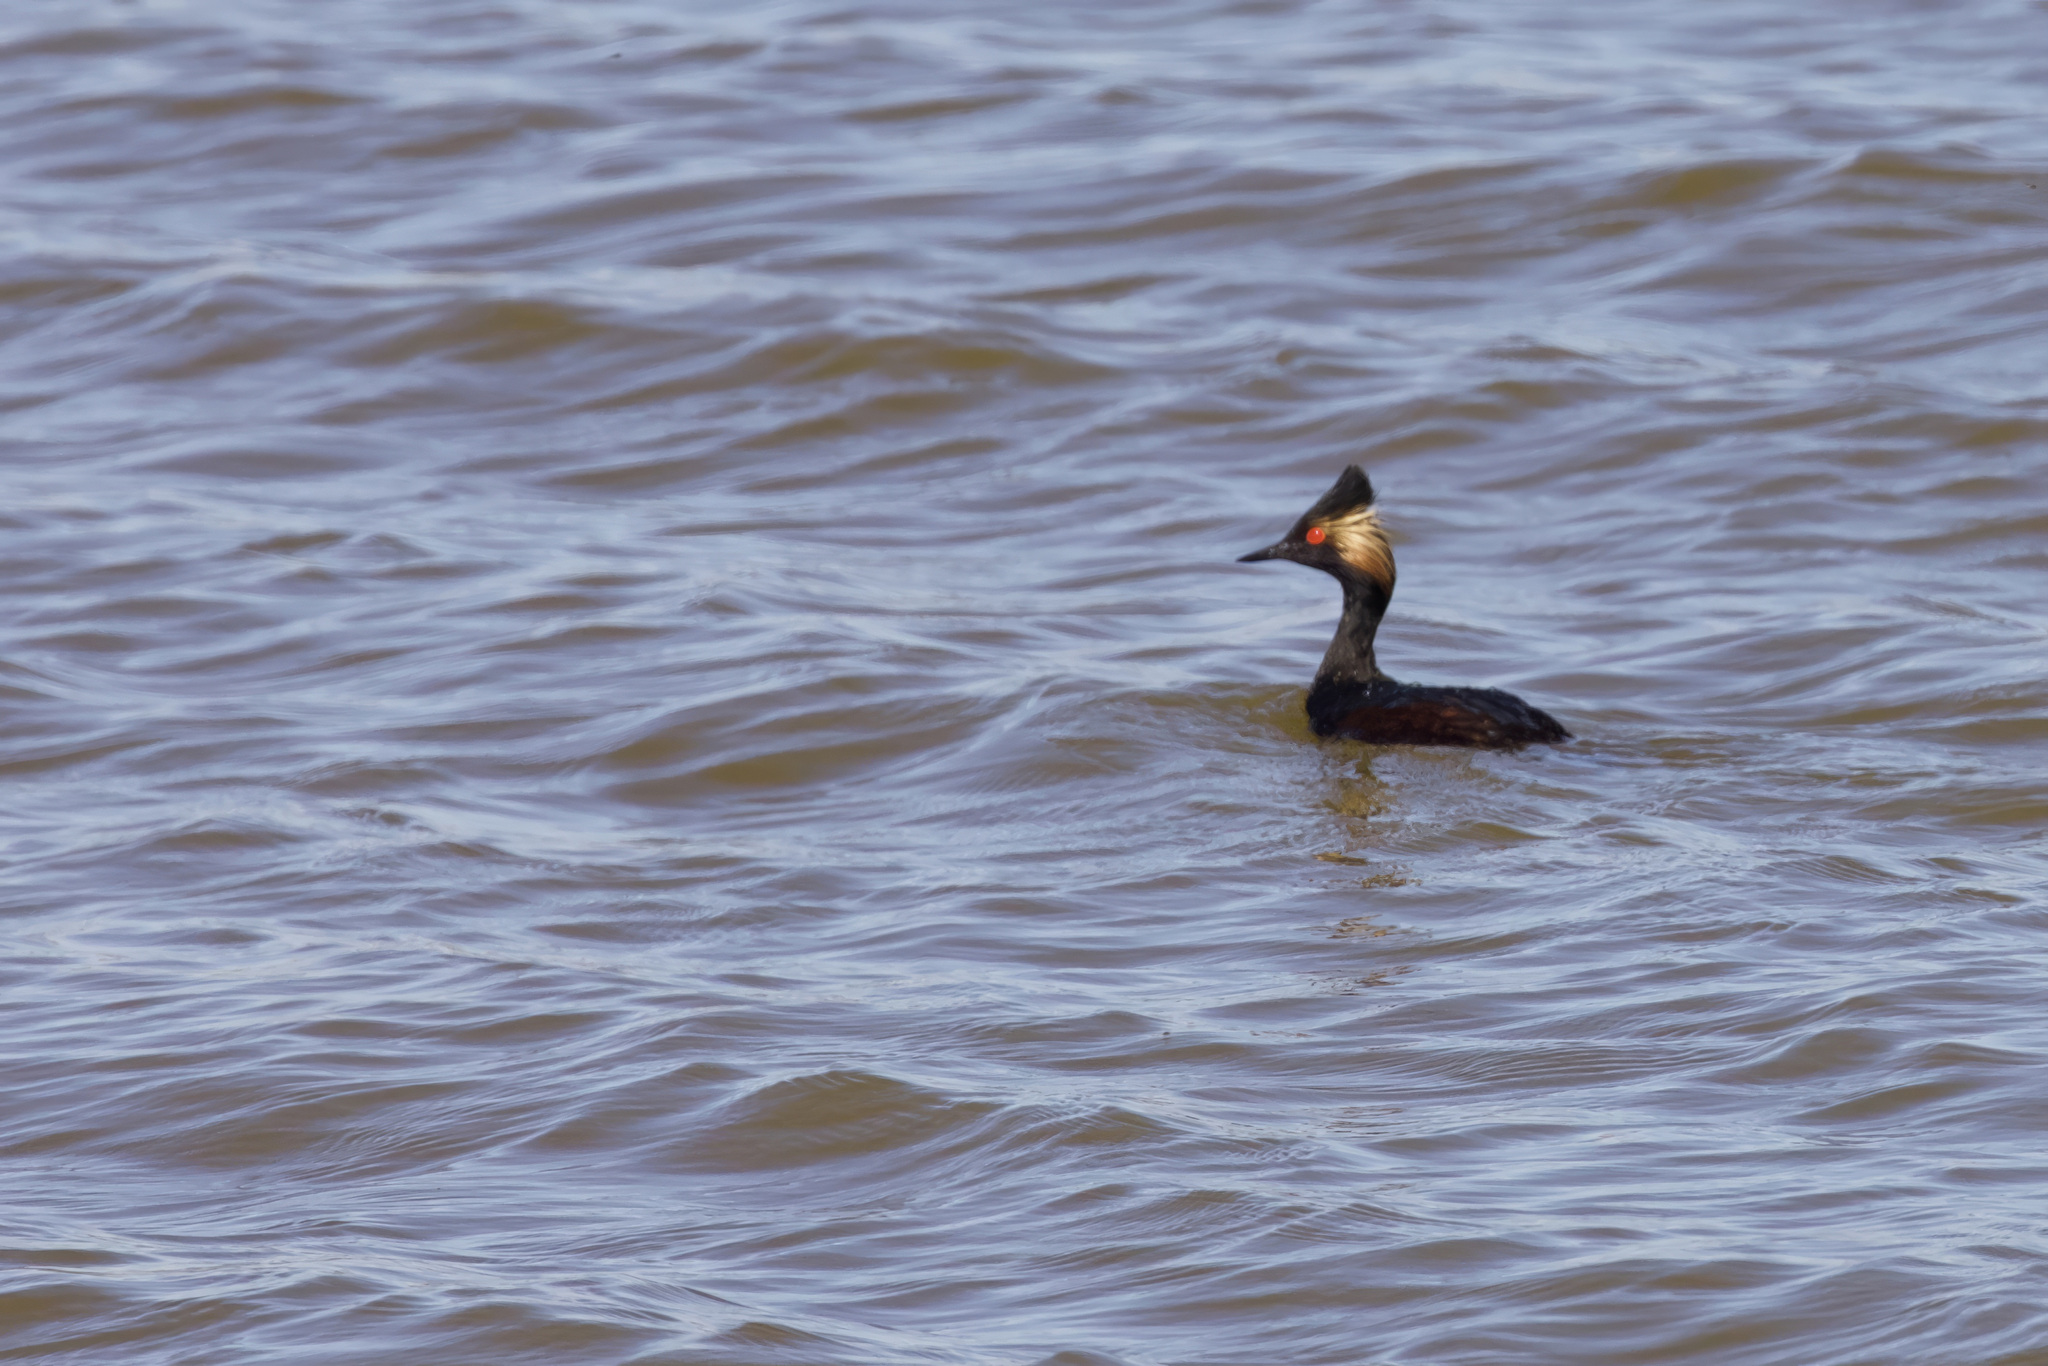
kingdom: Animalia
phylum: Chordata
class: Aves
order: Podicipediformes
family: Podicipedidae
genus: Podiceps
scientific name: Podiceps nigricollis
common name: Black-necked grebe
